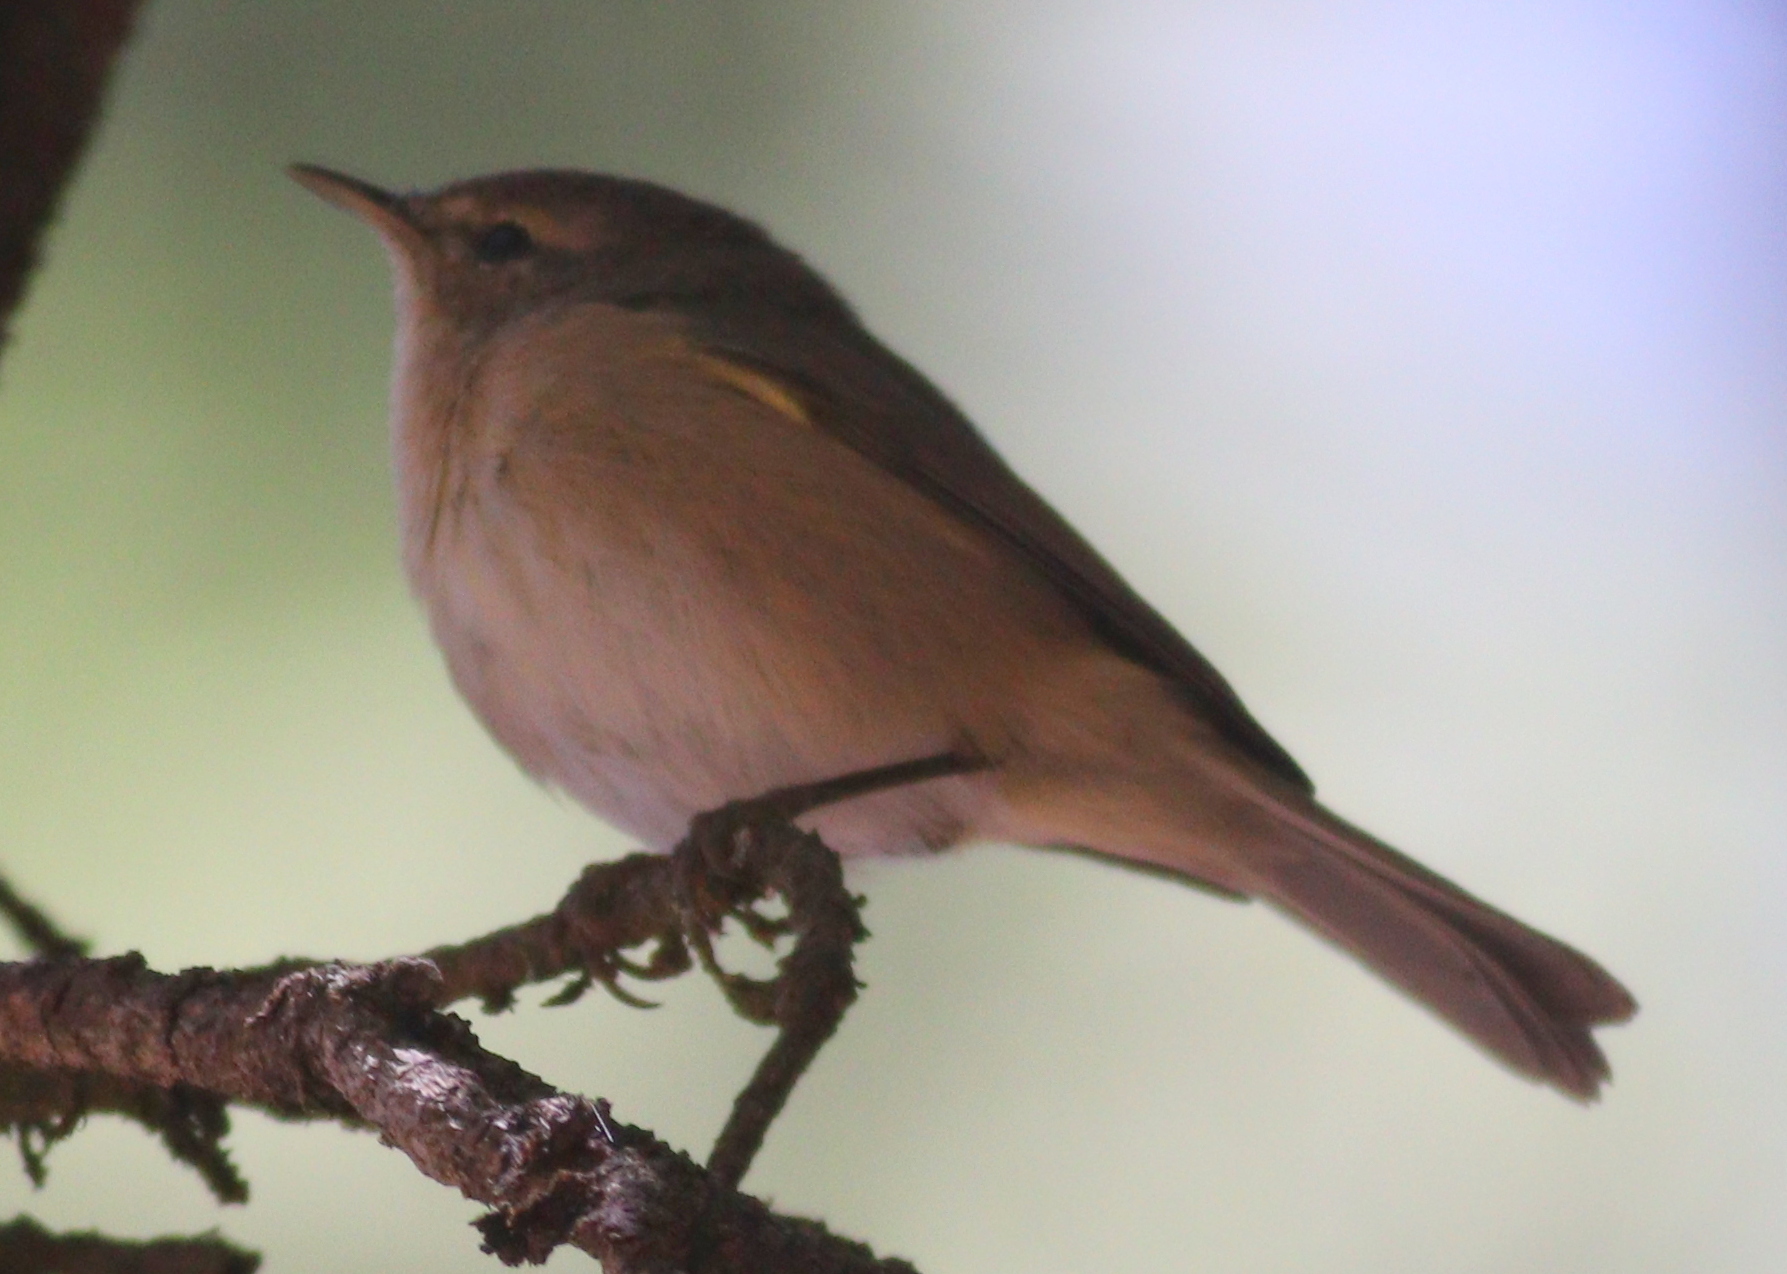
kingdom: Animalia
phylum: Chordata
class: Aves
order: Passeriformes
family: Phylloscopidae
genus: Phylloscopus
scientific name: Phylloscopus canariensis
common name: Canary islands chiffchaff
